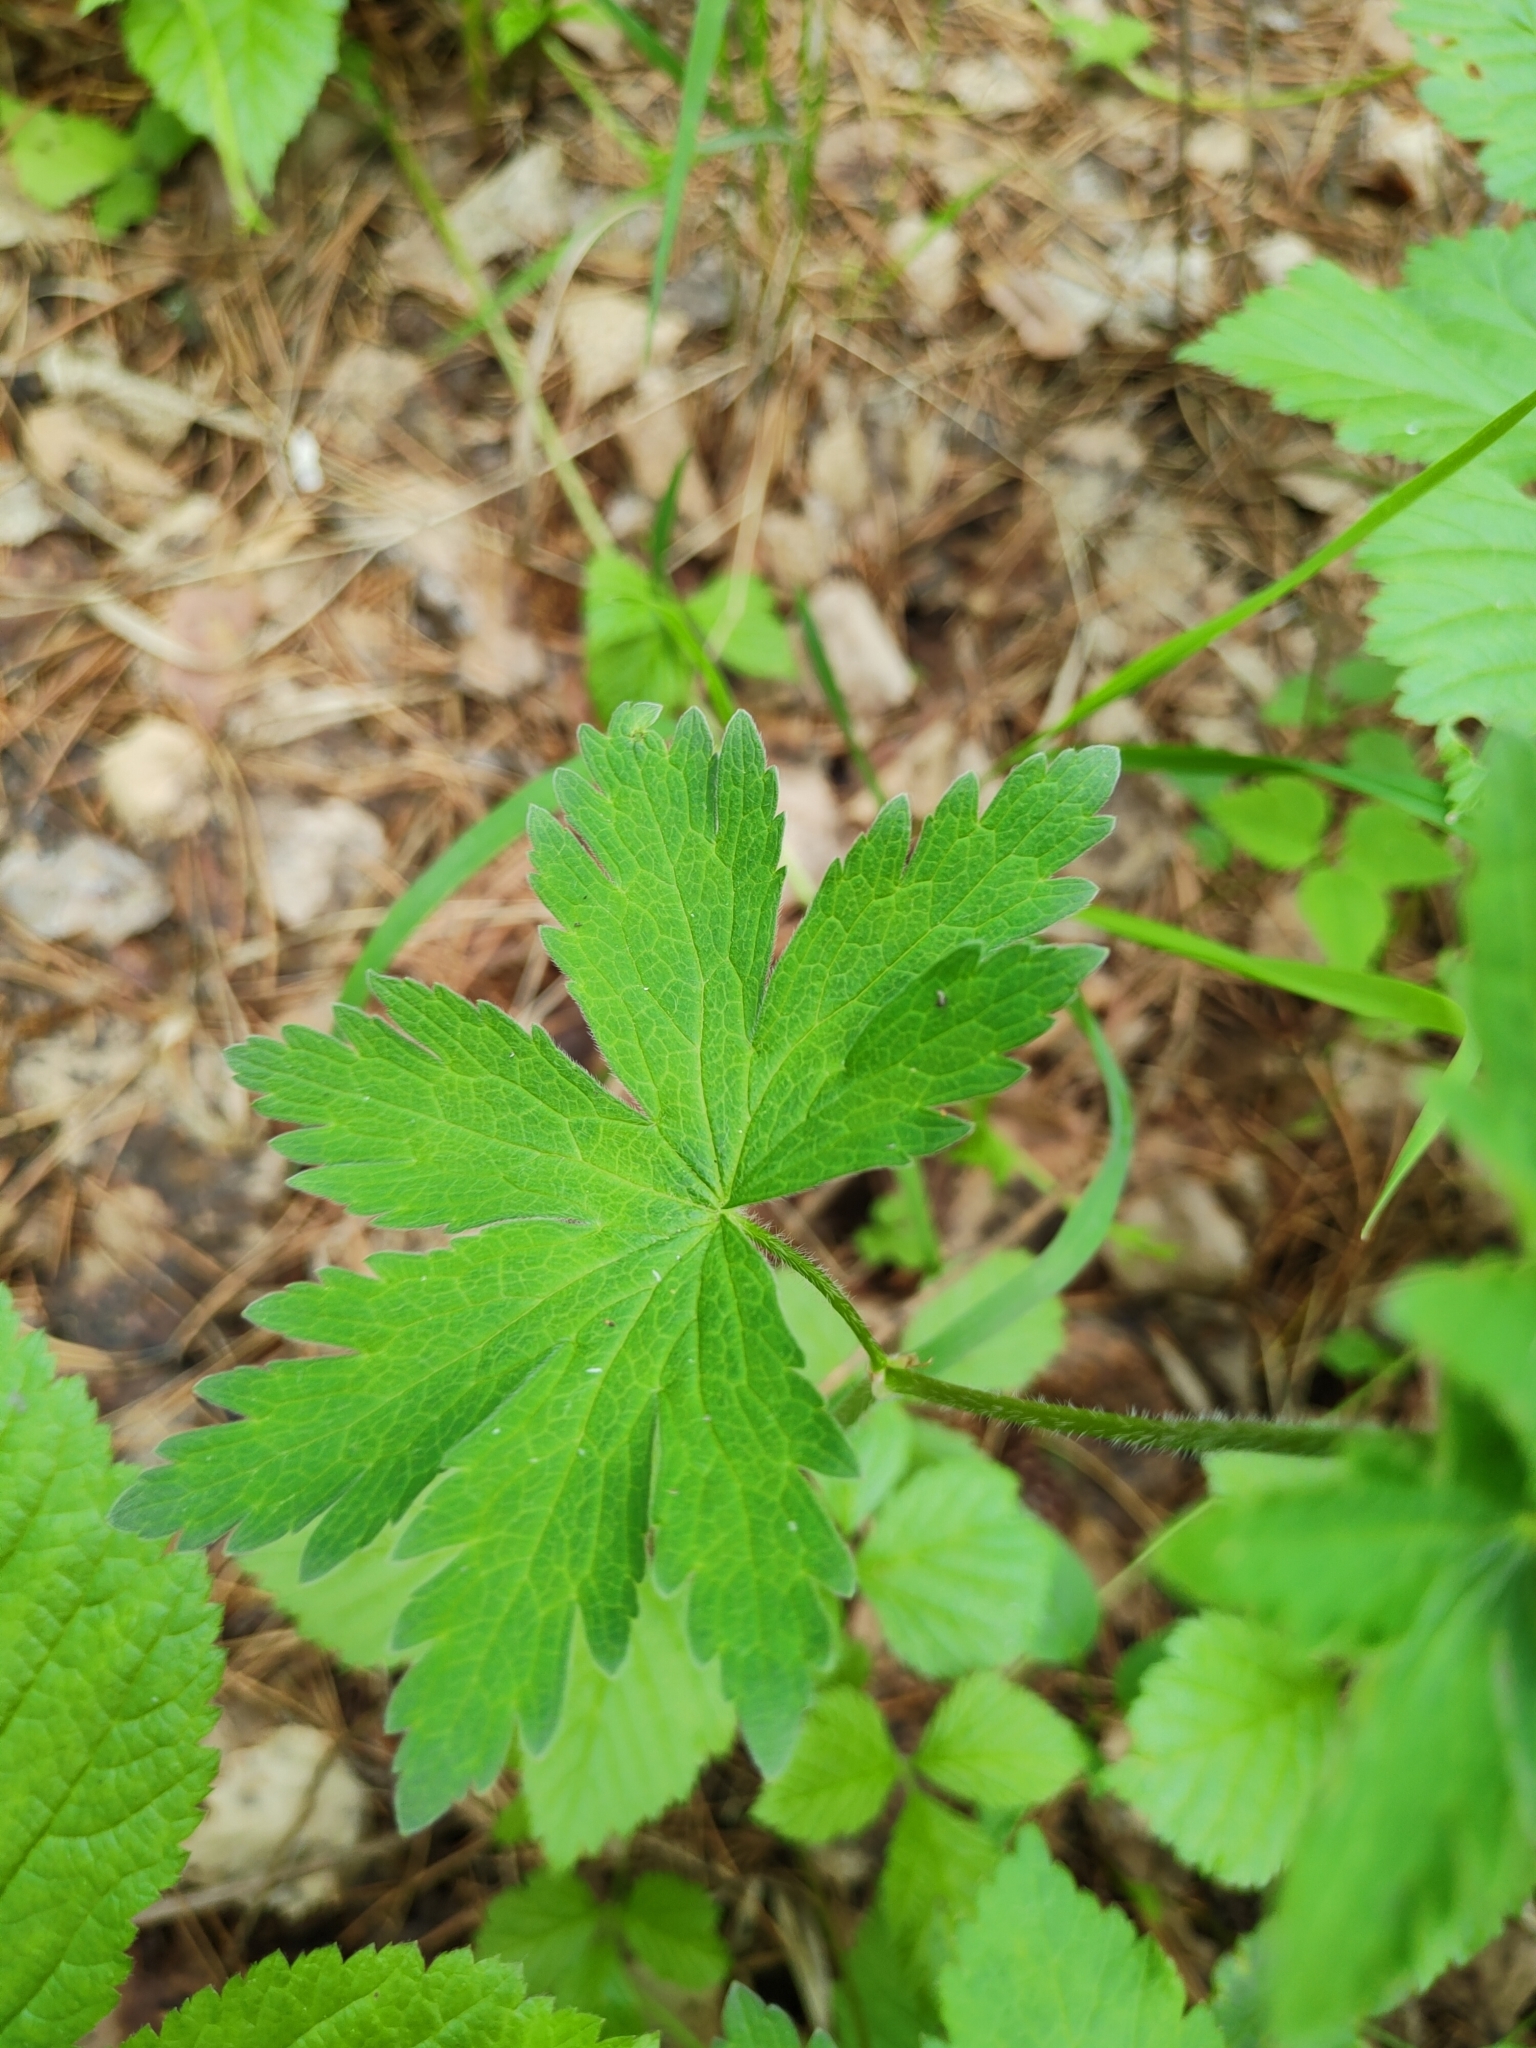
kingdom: Plantae
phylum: Tracheophyta
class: Magnoliopsida
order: Geraniales
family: Geraniaceae
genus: Geranium
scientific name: Geranium sylvaticum
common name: Wood crane's-bill
